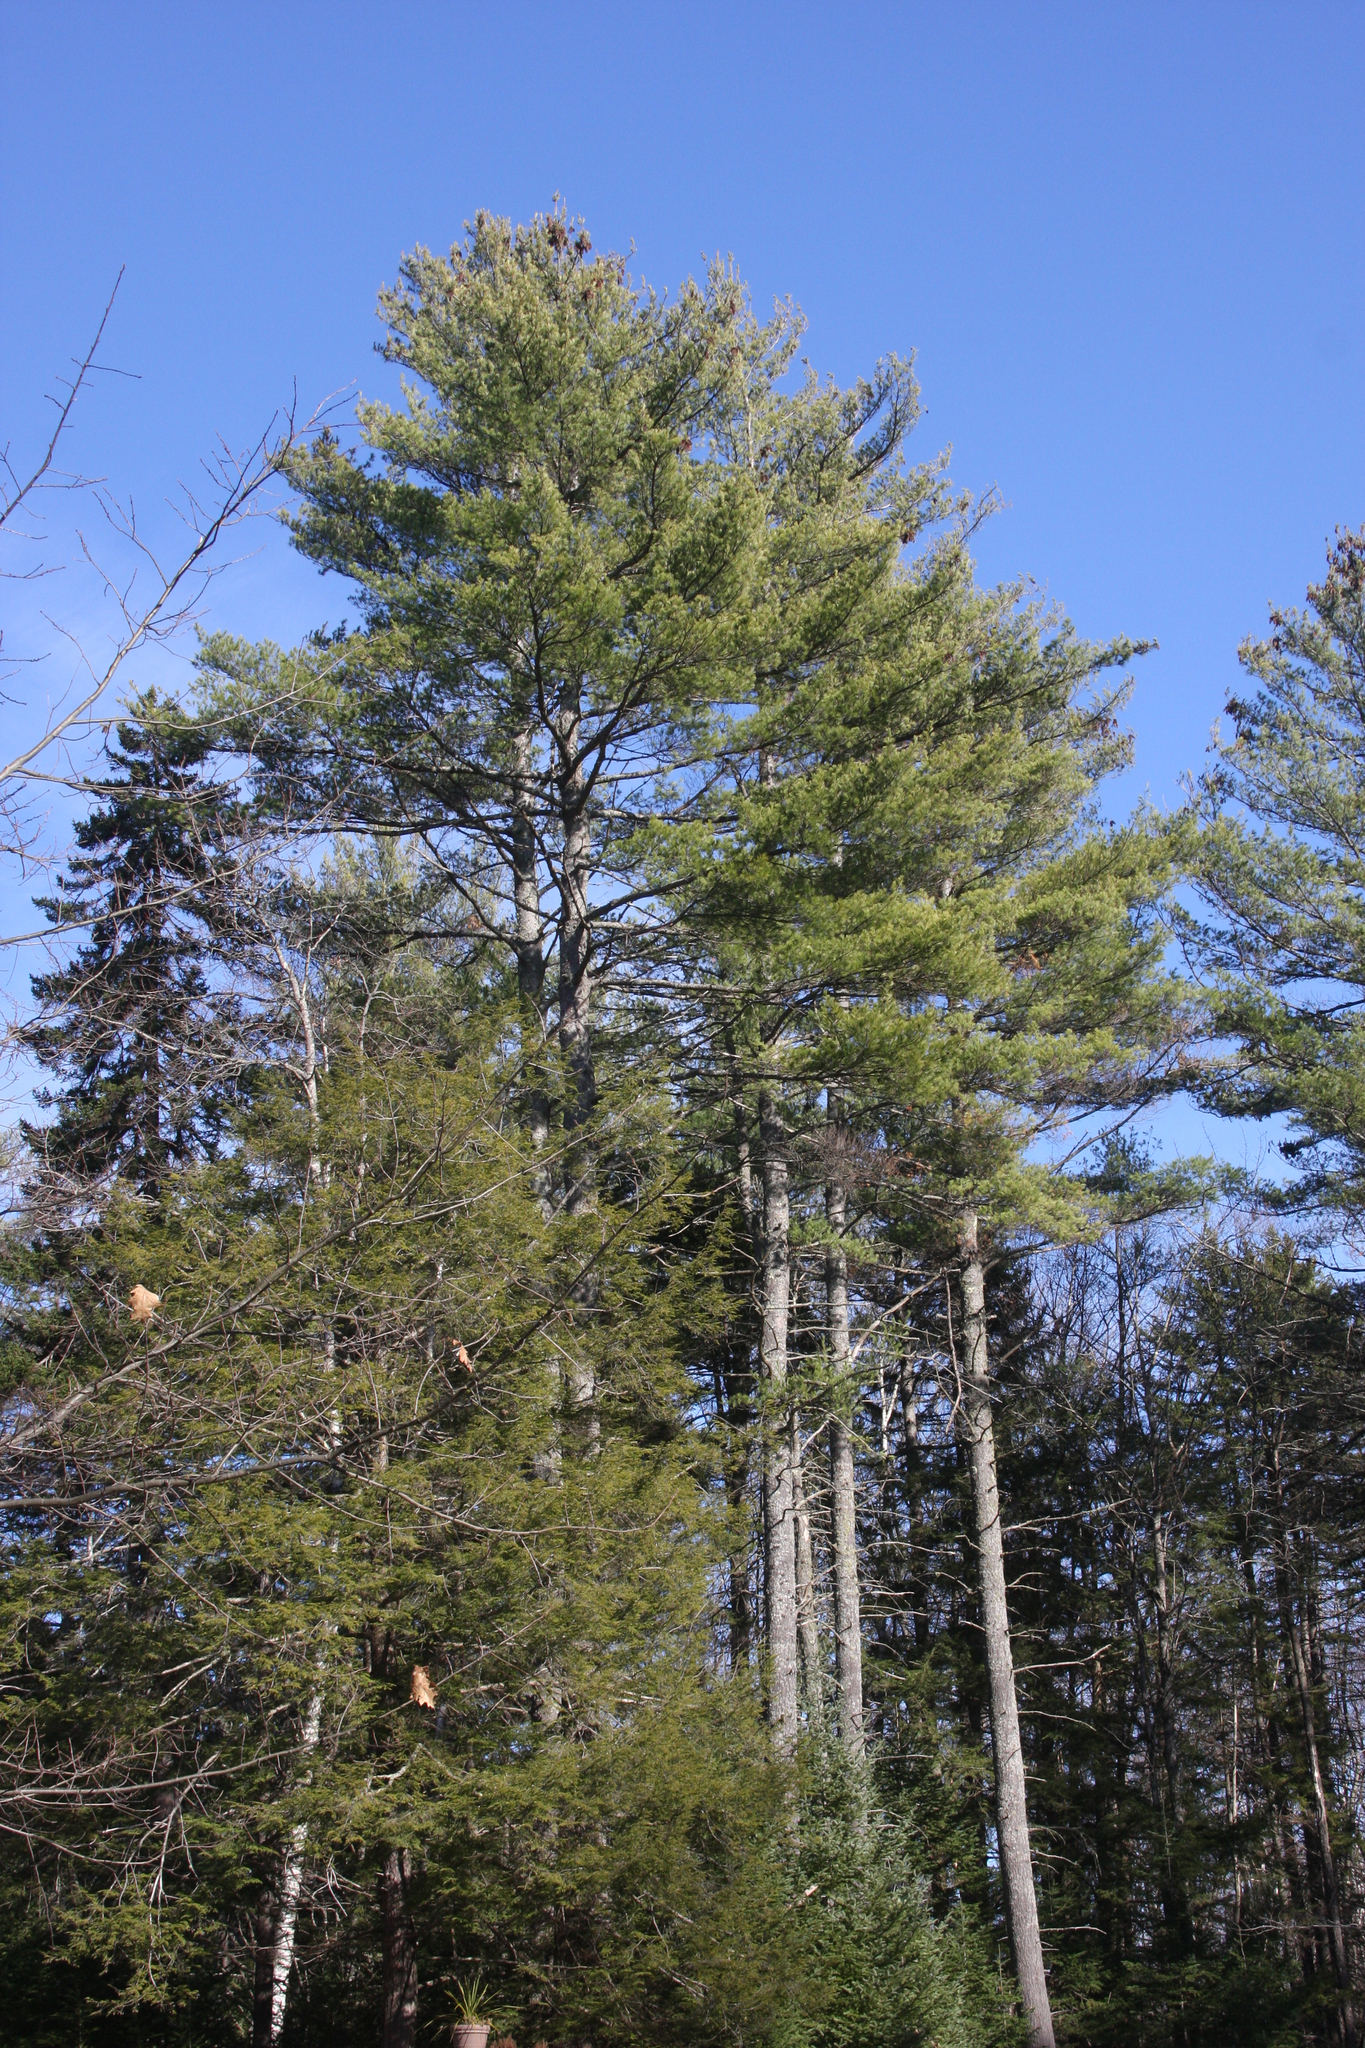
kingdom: Plantae
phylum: Tracheophyta
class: Pinopsida
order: Pinales
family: Pinaceae
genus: Pinus
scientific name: Pinus strobus
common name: Weymouth pine
